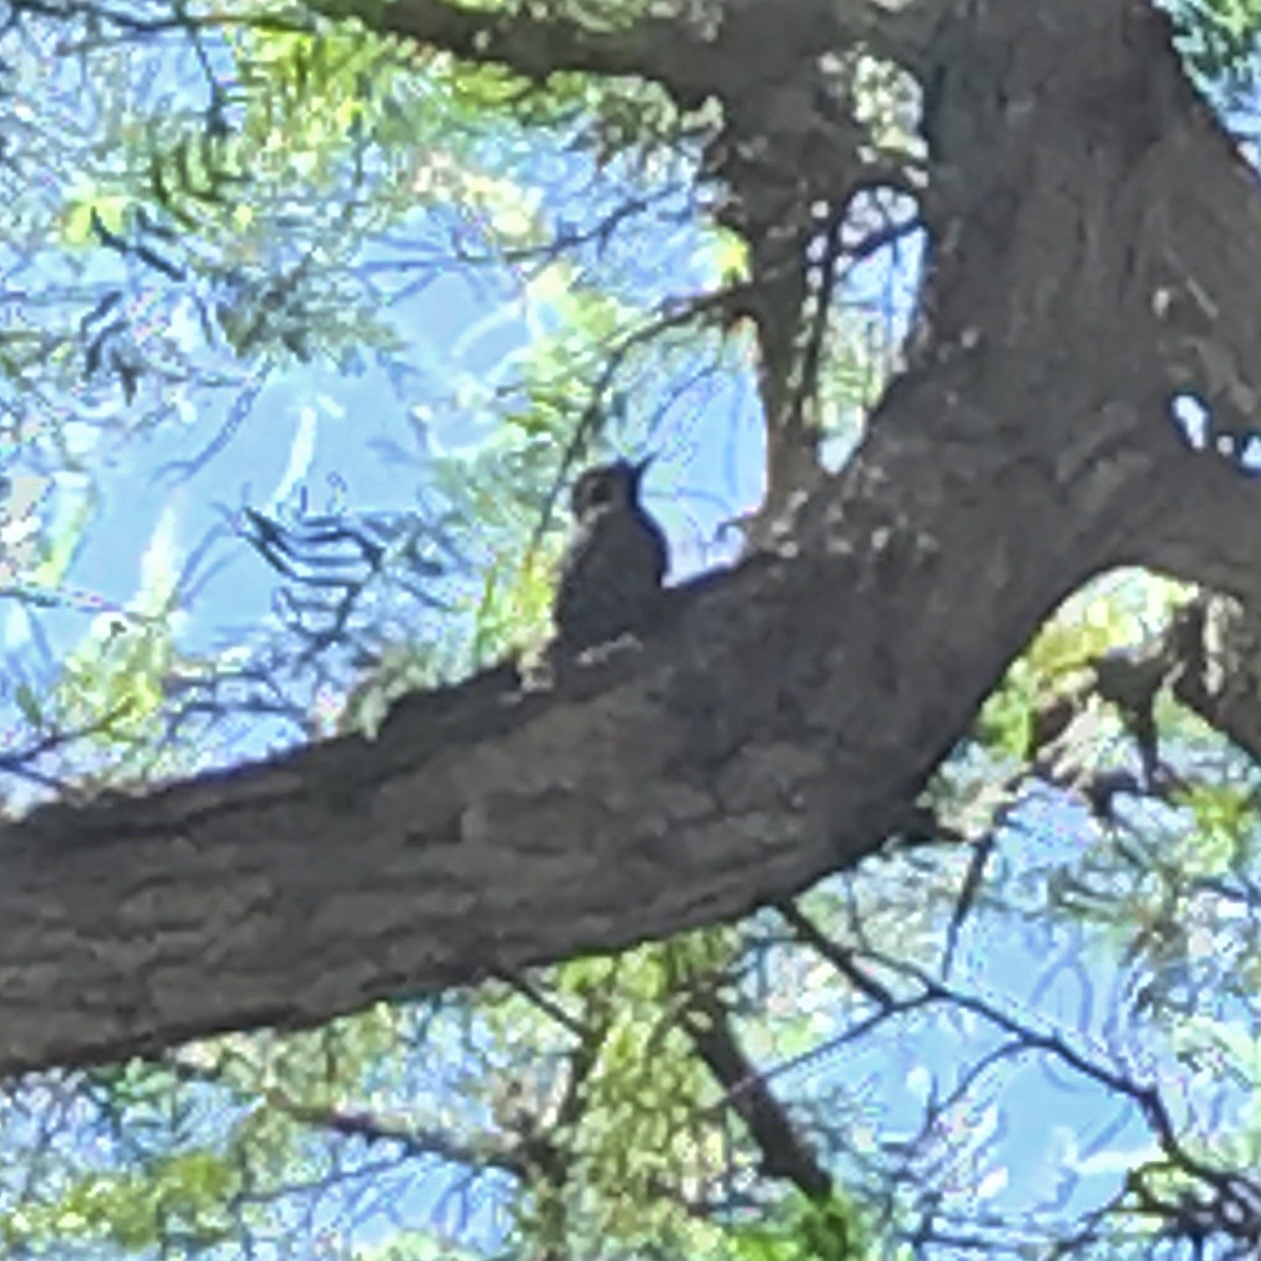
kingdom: Animalia
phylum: Chordata
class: Aves
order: Piciformes
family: Picidae
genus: Veniliornis
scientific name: Veniliornis lignarius
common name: Striped woodpecker
